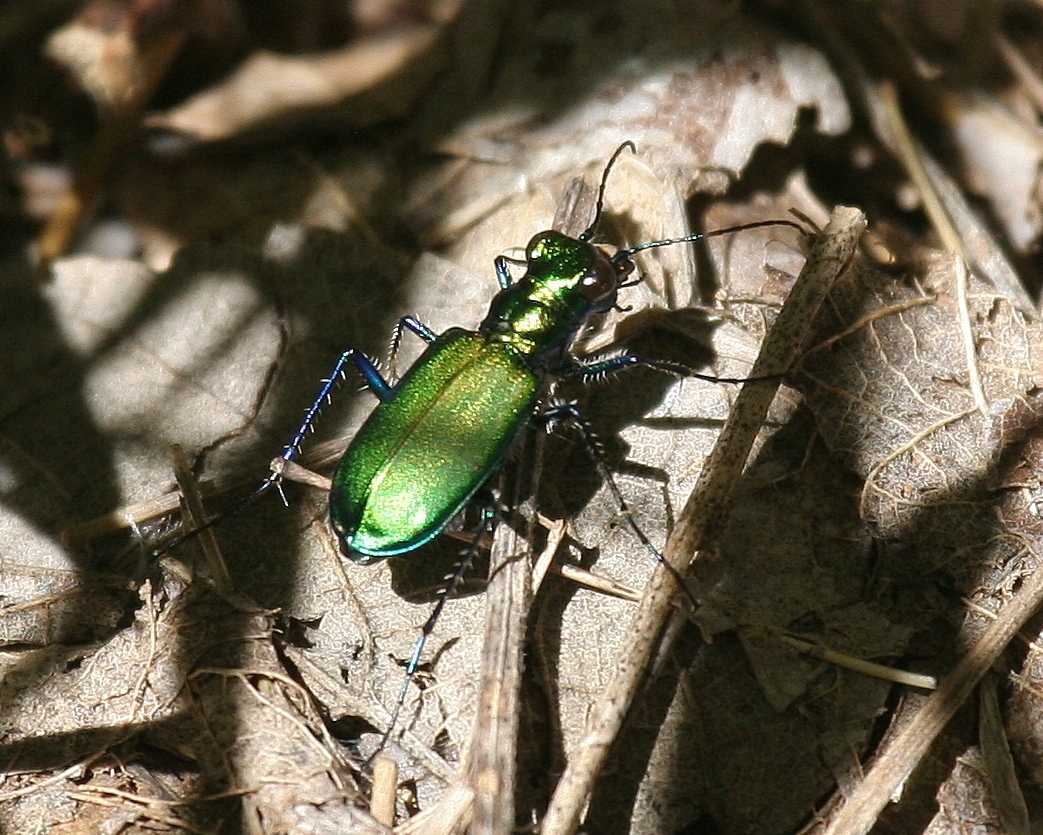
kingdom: Animalia
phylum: Arthropoda
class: Insecta
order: Coleoptera
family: Carabidae
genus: Cicindela
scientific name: Cicindela sexguttata
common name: Six-spotted tiger beetle
